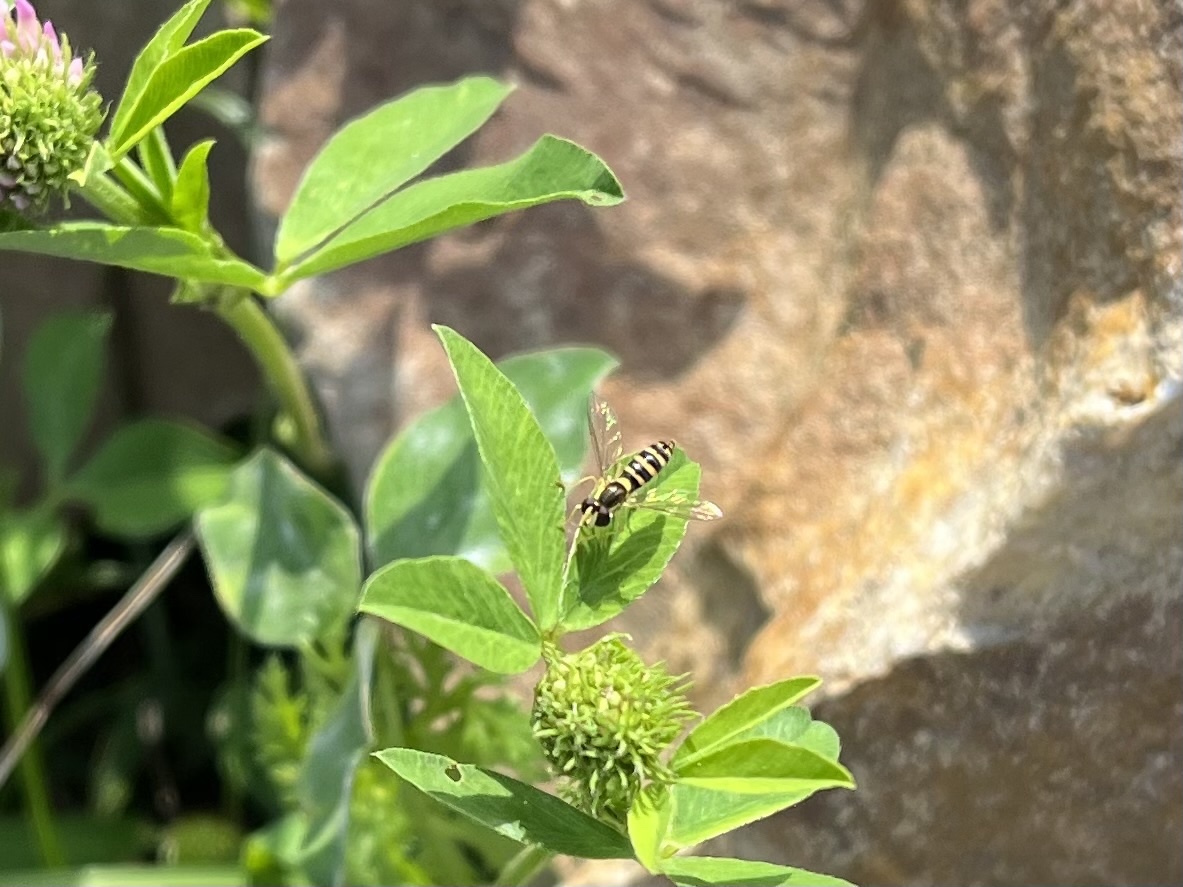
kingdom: Animalia
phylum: Arthropoda
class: Insecta
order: Diptera
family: Syrphidae
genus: Sphaerophoria
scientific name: Sphaerophoria
